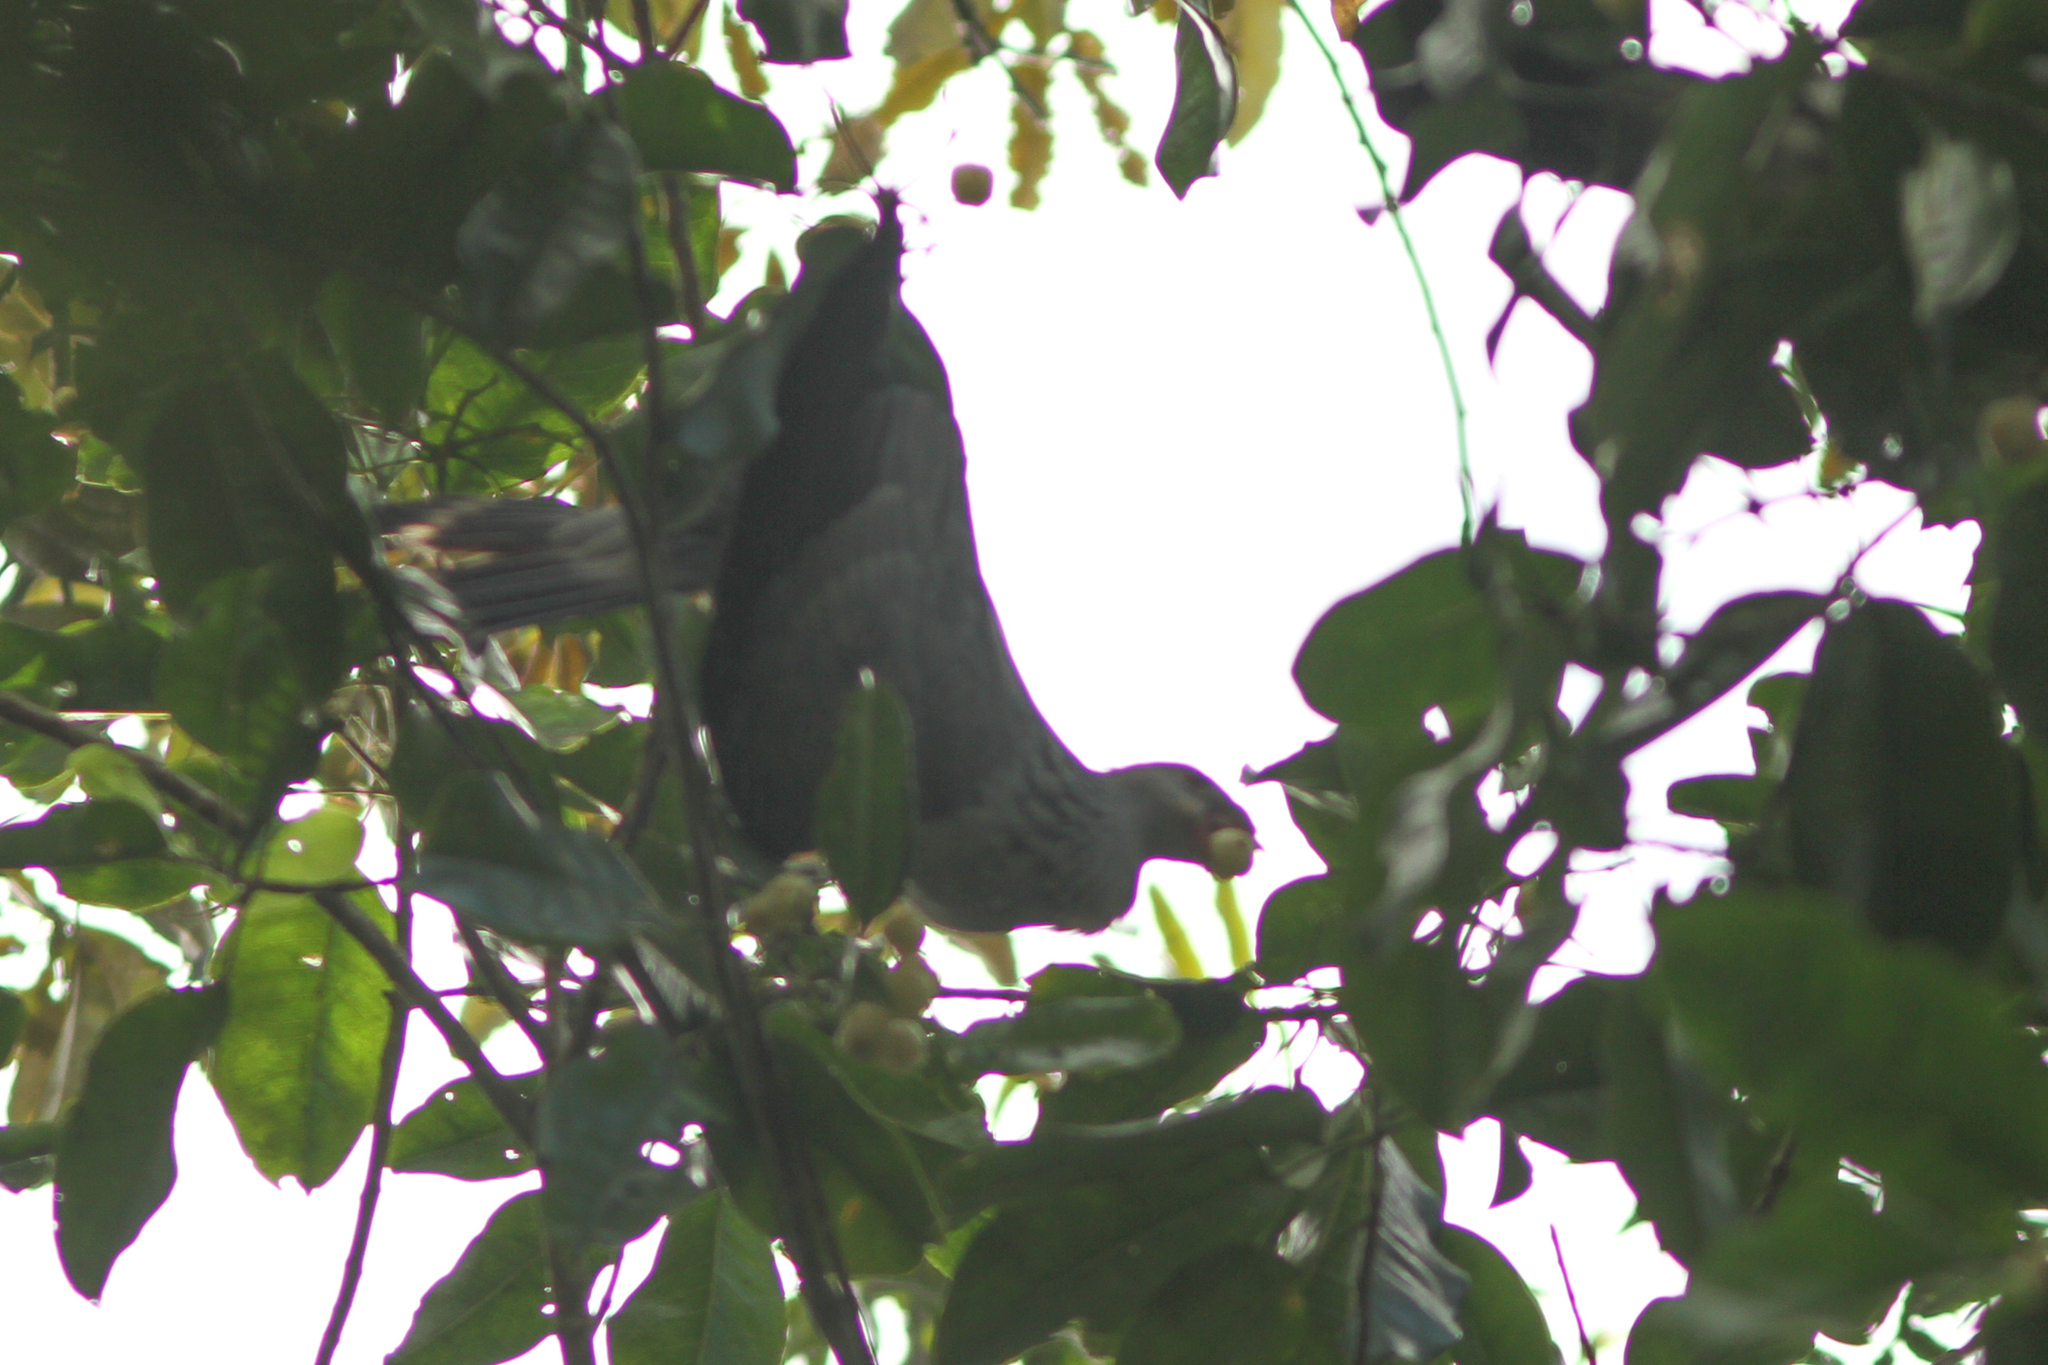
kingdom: Animalia
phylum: Chordata
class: Aves
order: Columbiformes
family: Columbidae
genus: Lopholaimus
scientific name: Lopholaimus antarcticus
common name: Topknot pigeon
